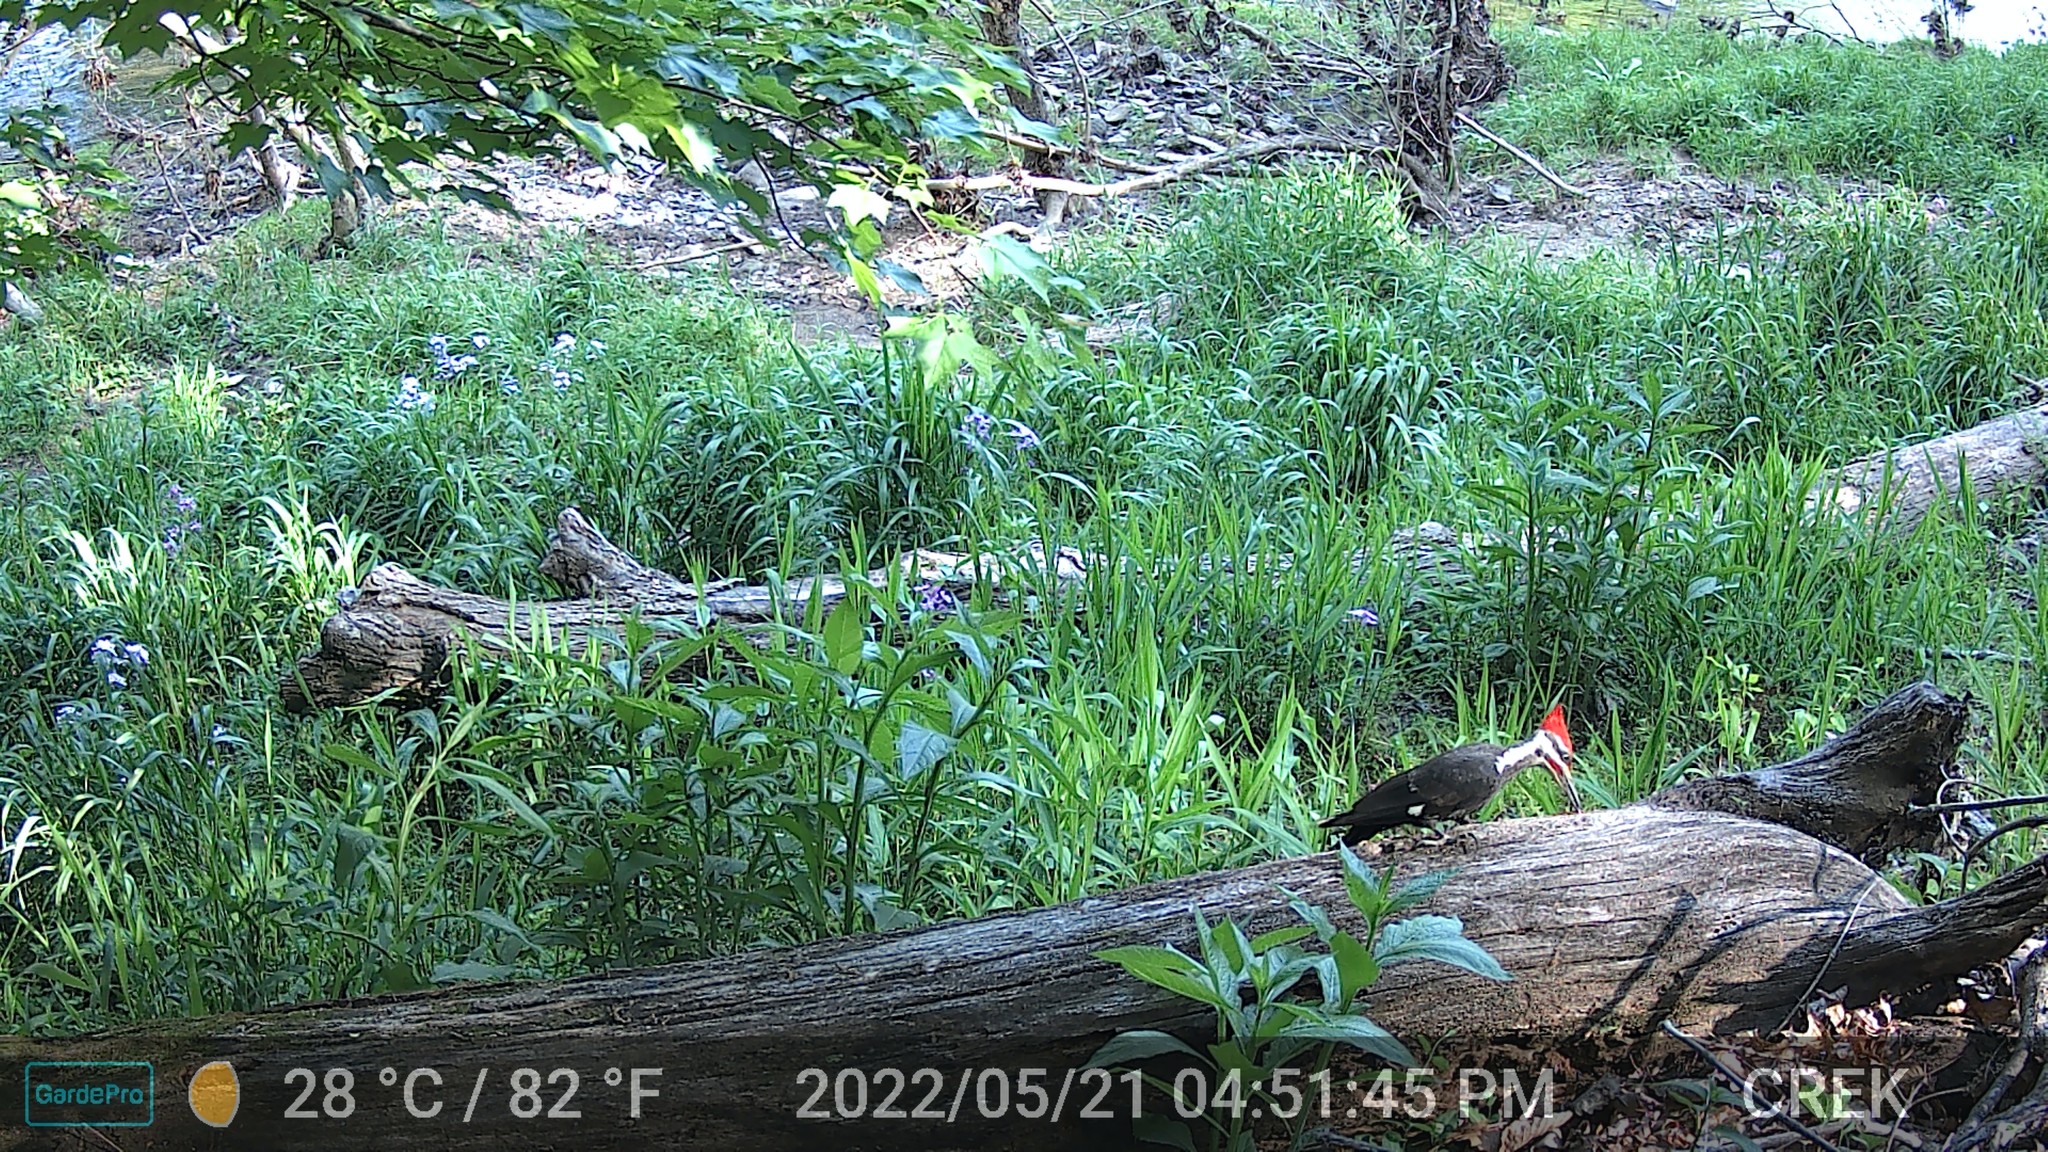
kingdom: Animalia
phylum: Chordata
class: Aves
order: Piciformes
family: Picidae
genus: Dryocopus
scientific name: Dryocopus pileatus
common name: Pileated woodpecker
